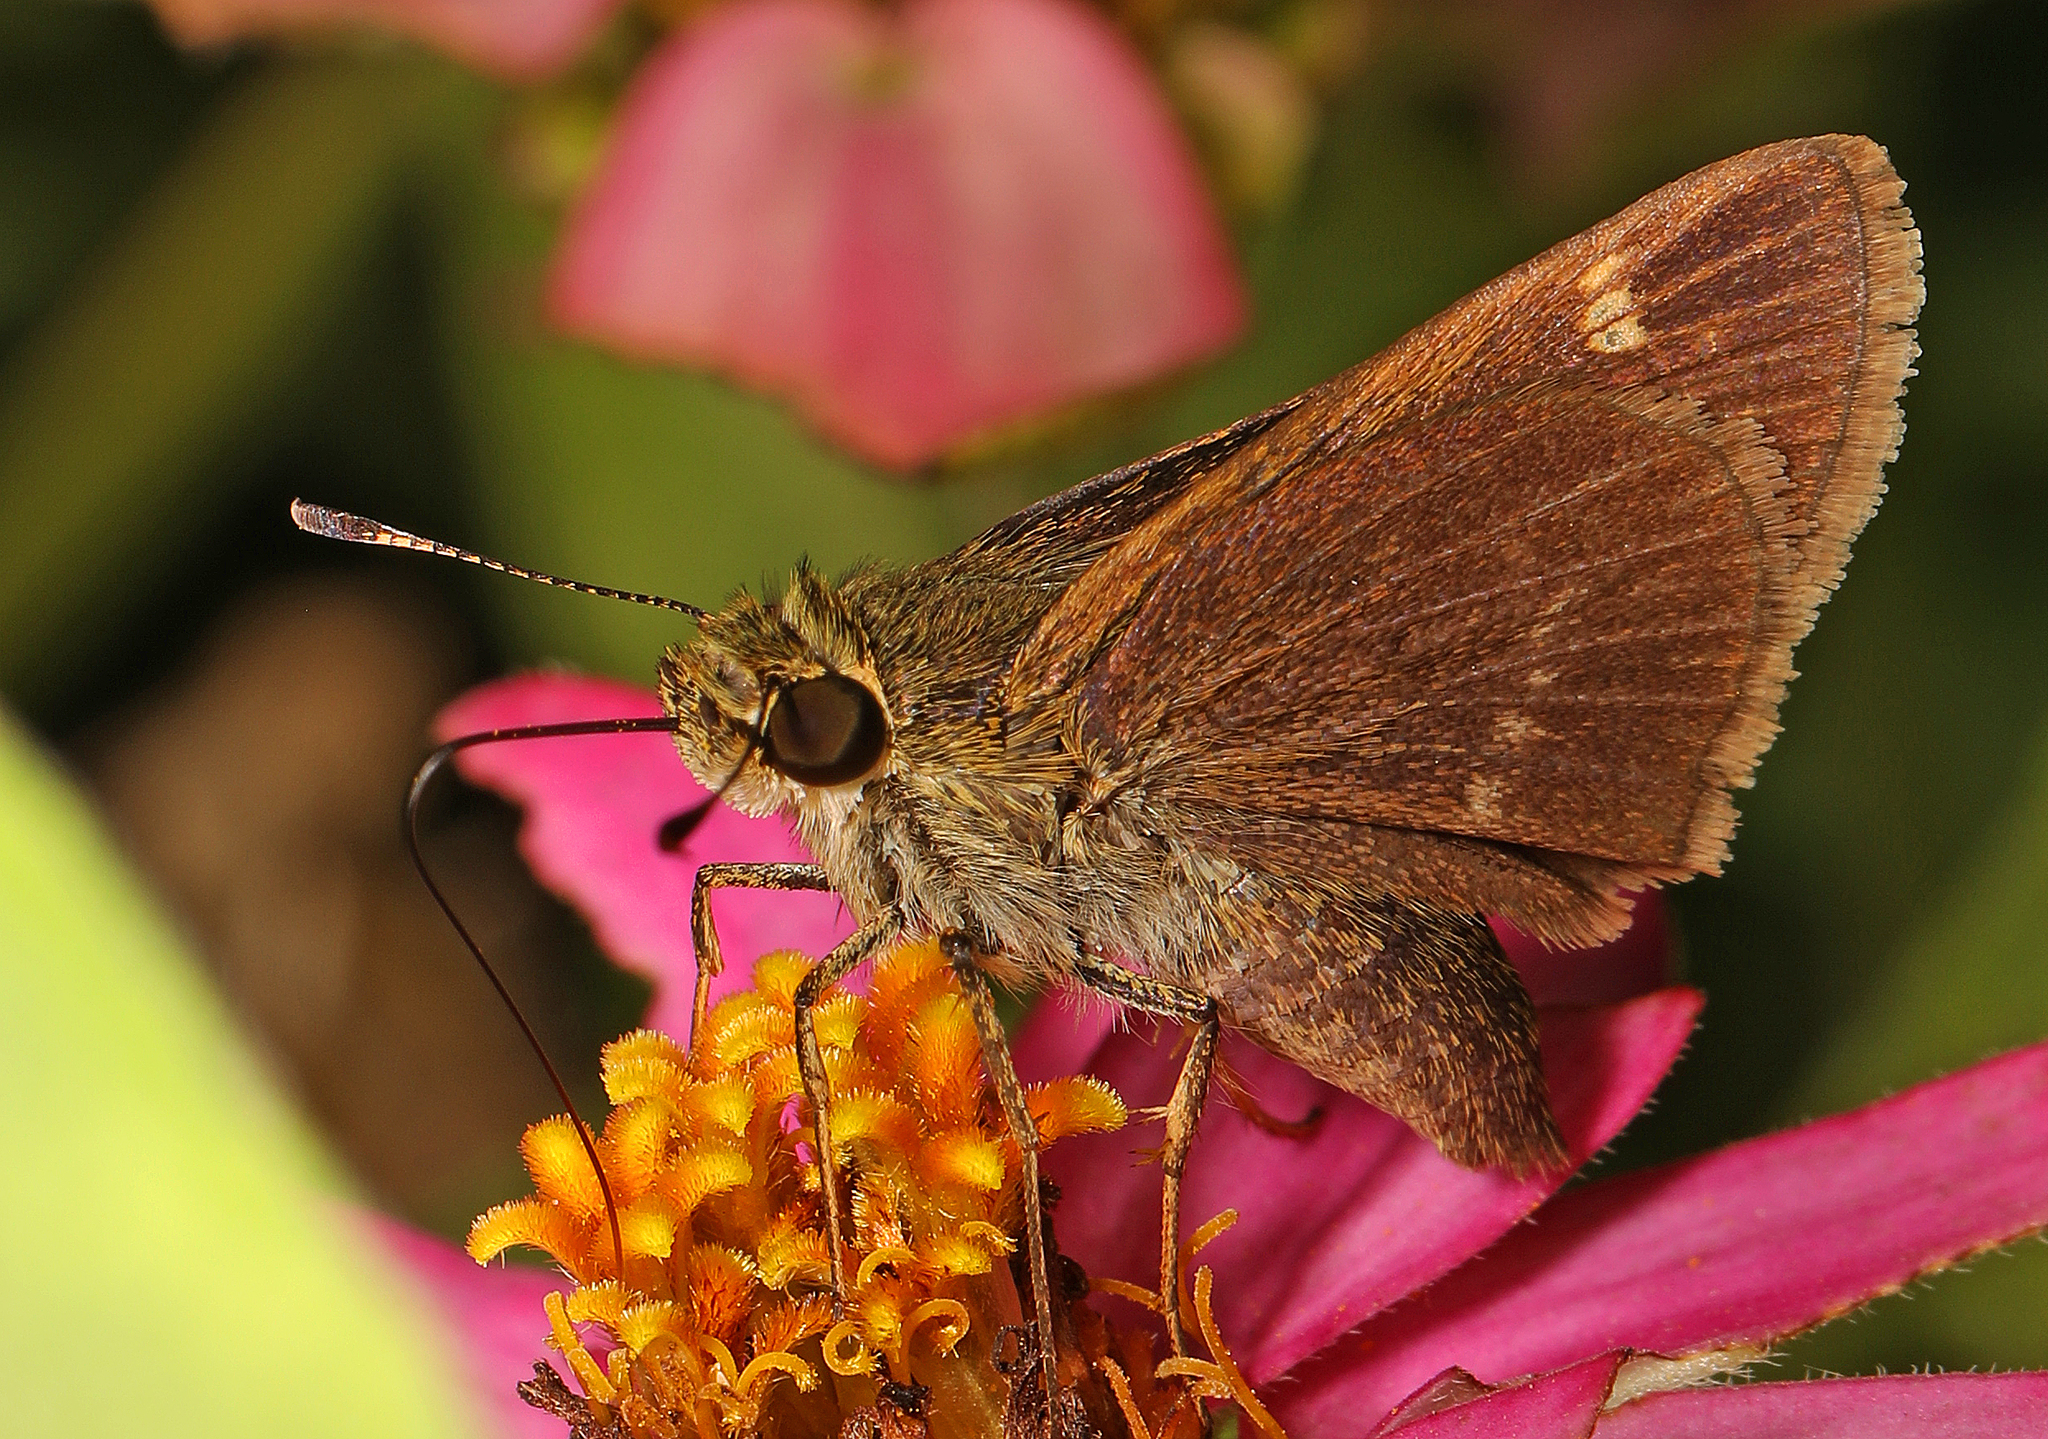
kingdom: Animalia
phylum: Arthropoda
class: Insecta
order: Lepidoptera
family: Hesperiidae
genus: Vernia
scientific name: Vernia verna
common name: Little glassywing
